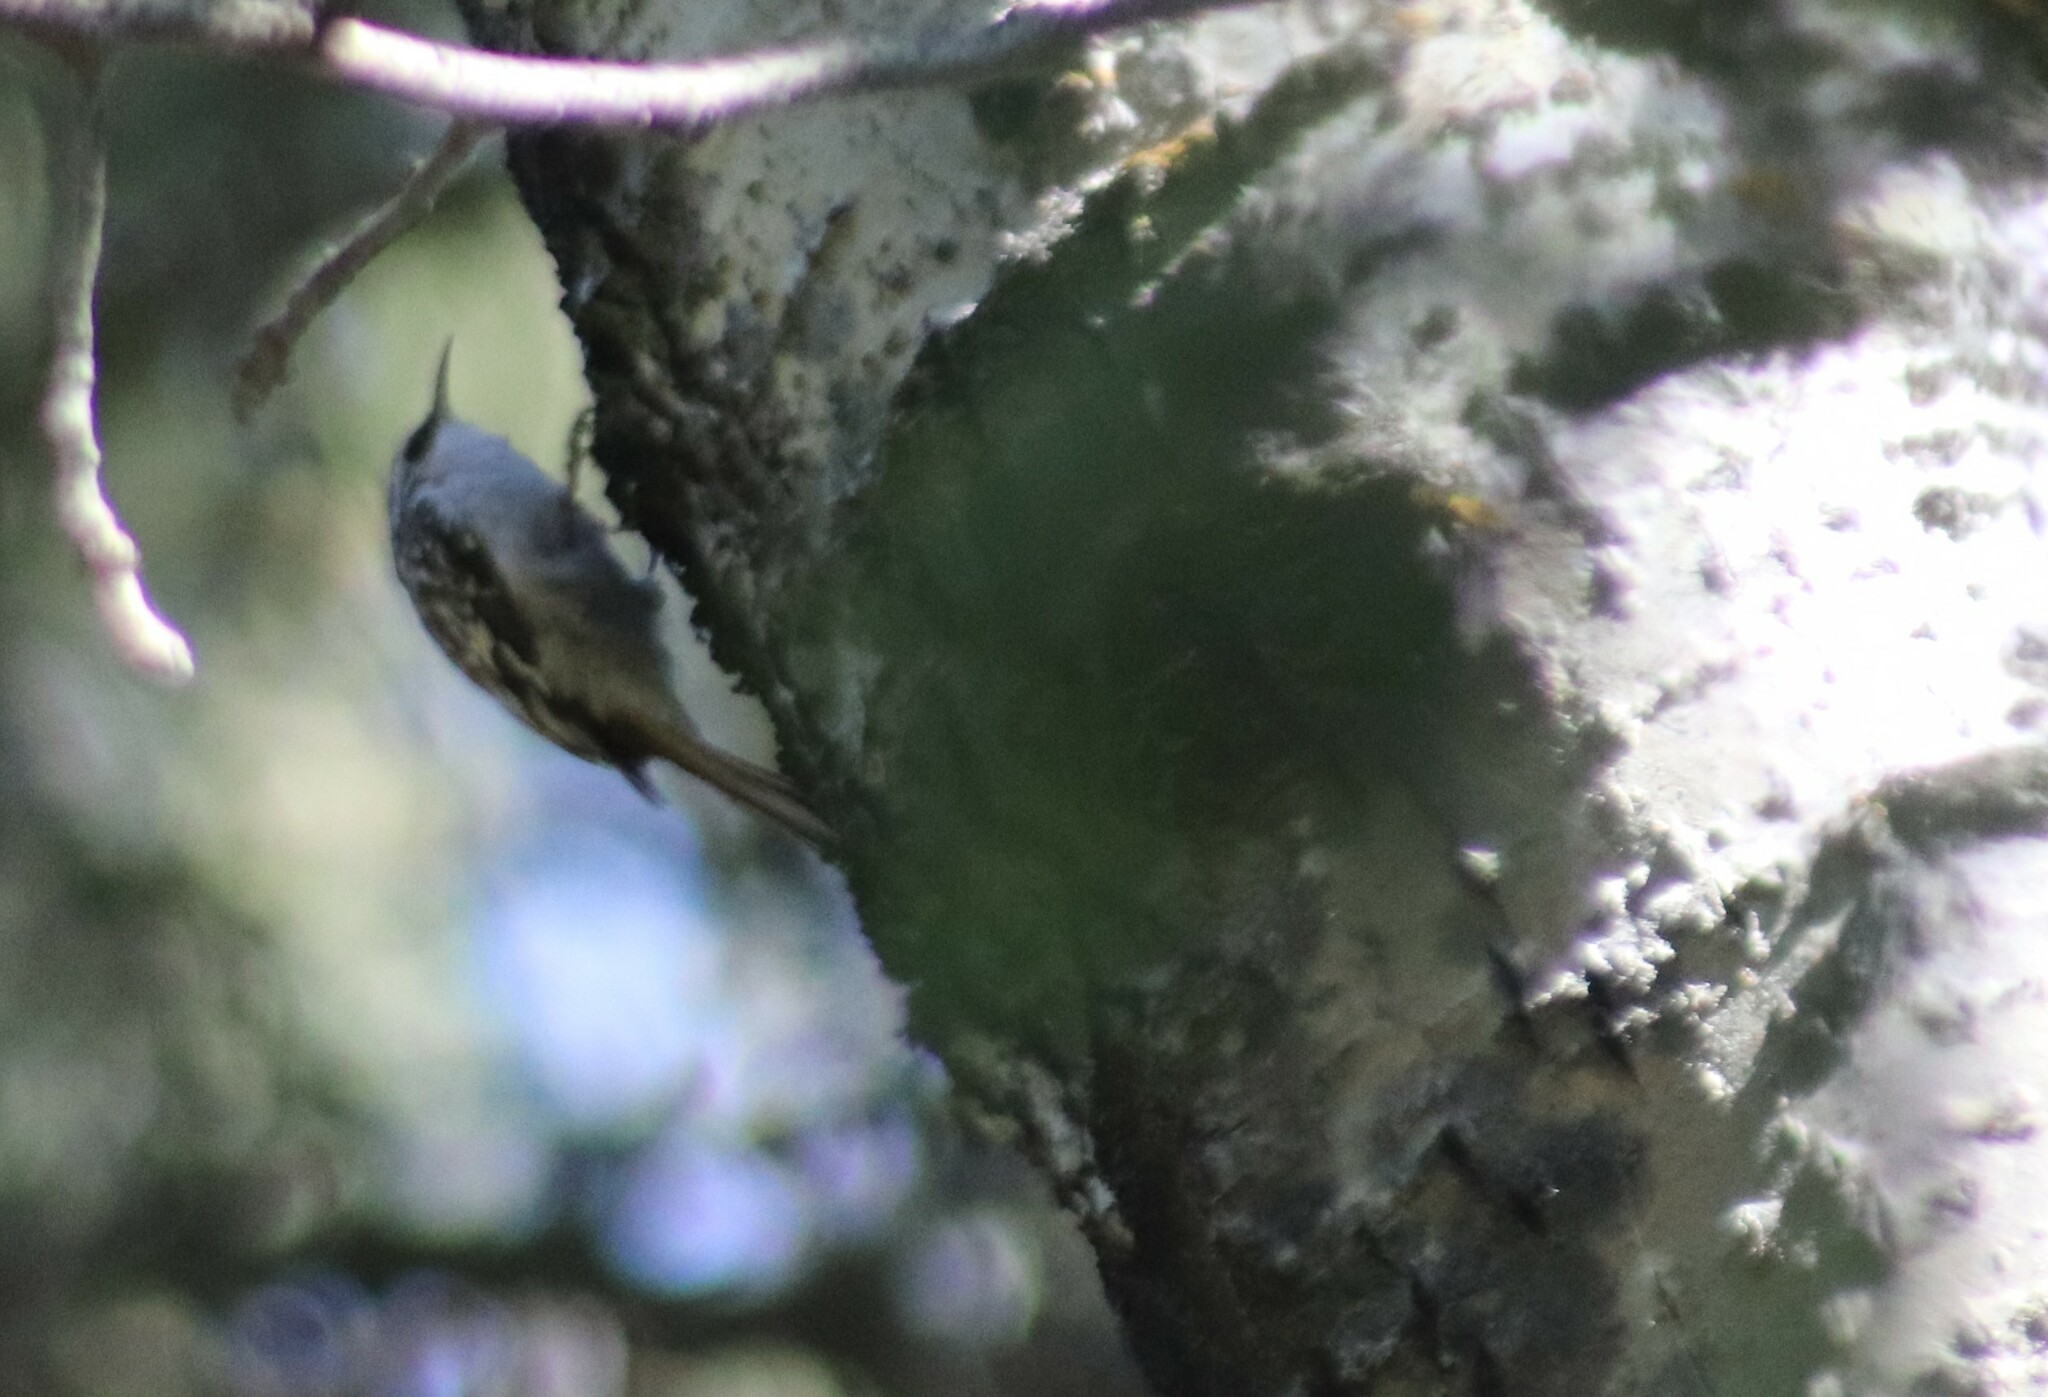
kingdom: Animalia
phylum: Chordata
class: Aves
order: Passeriformes
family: Certhiidae
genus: Certhia
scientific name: Certhia americana
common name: Brown creeper
